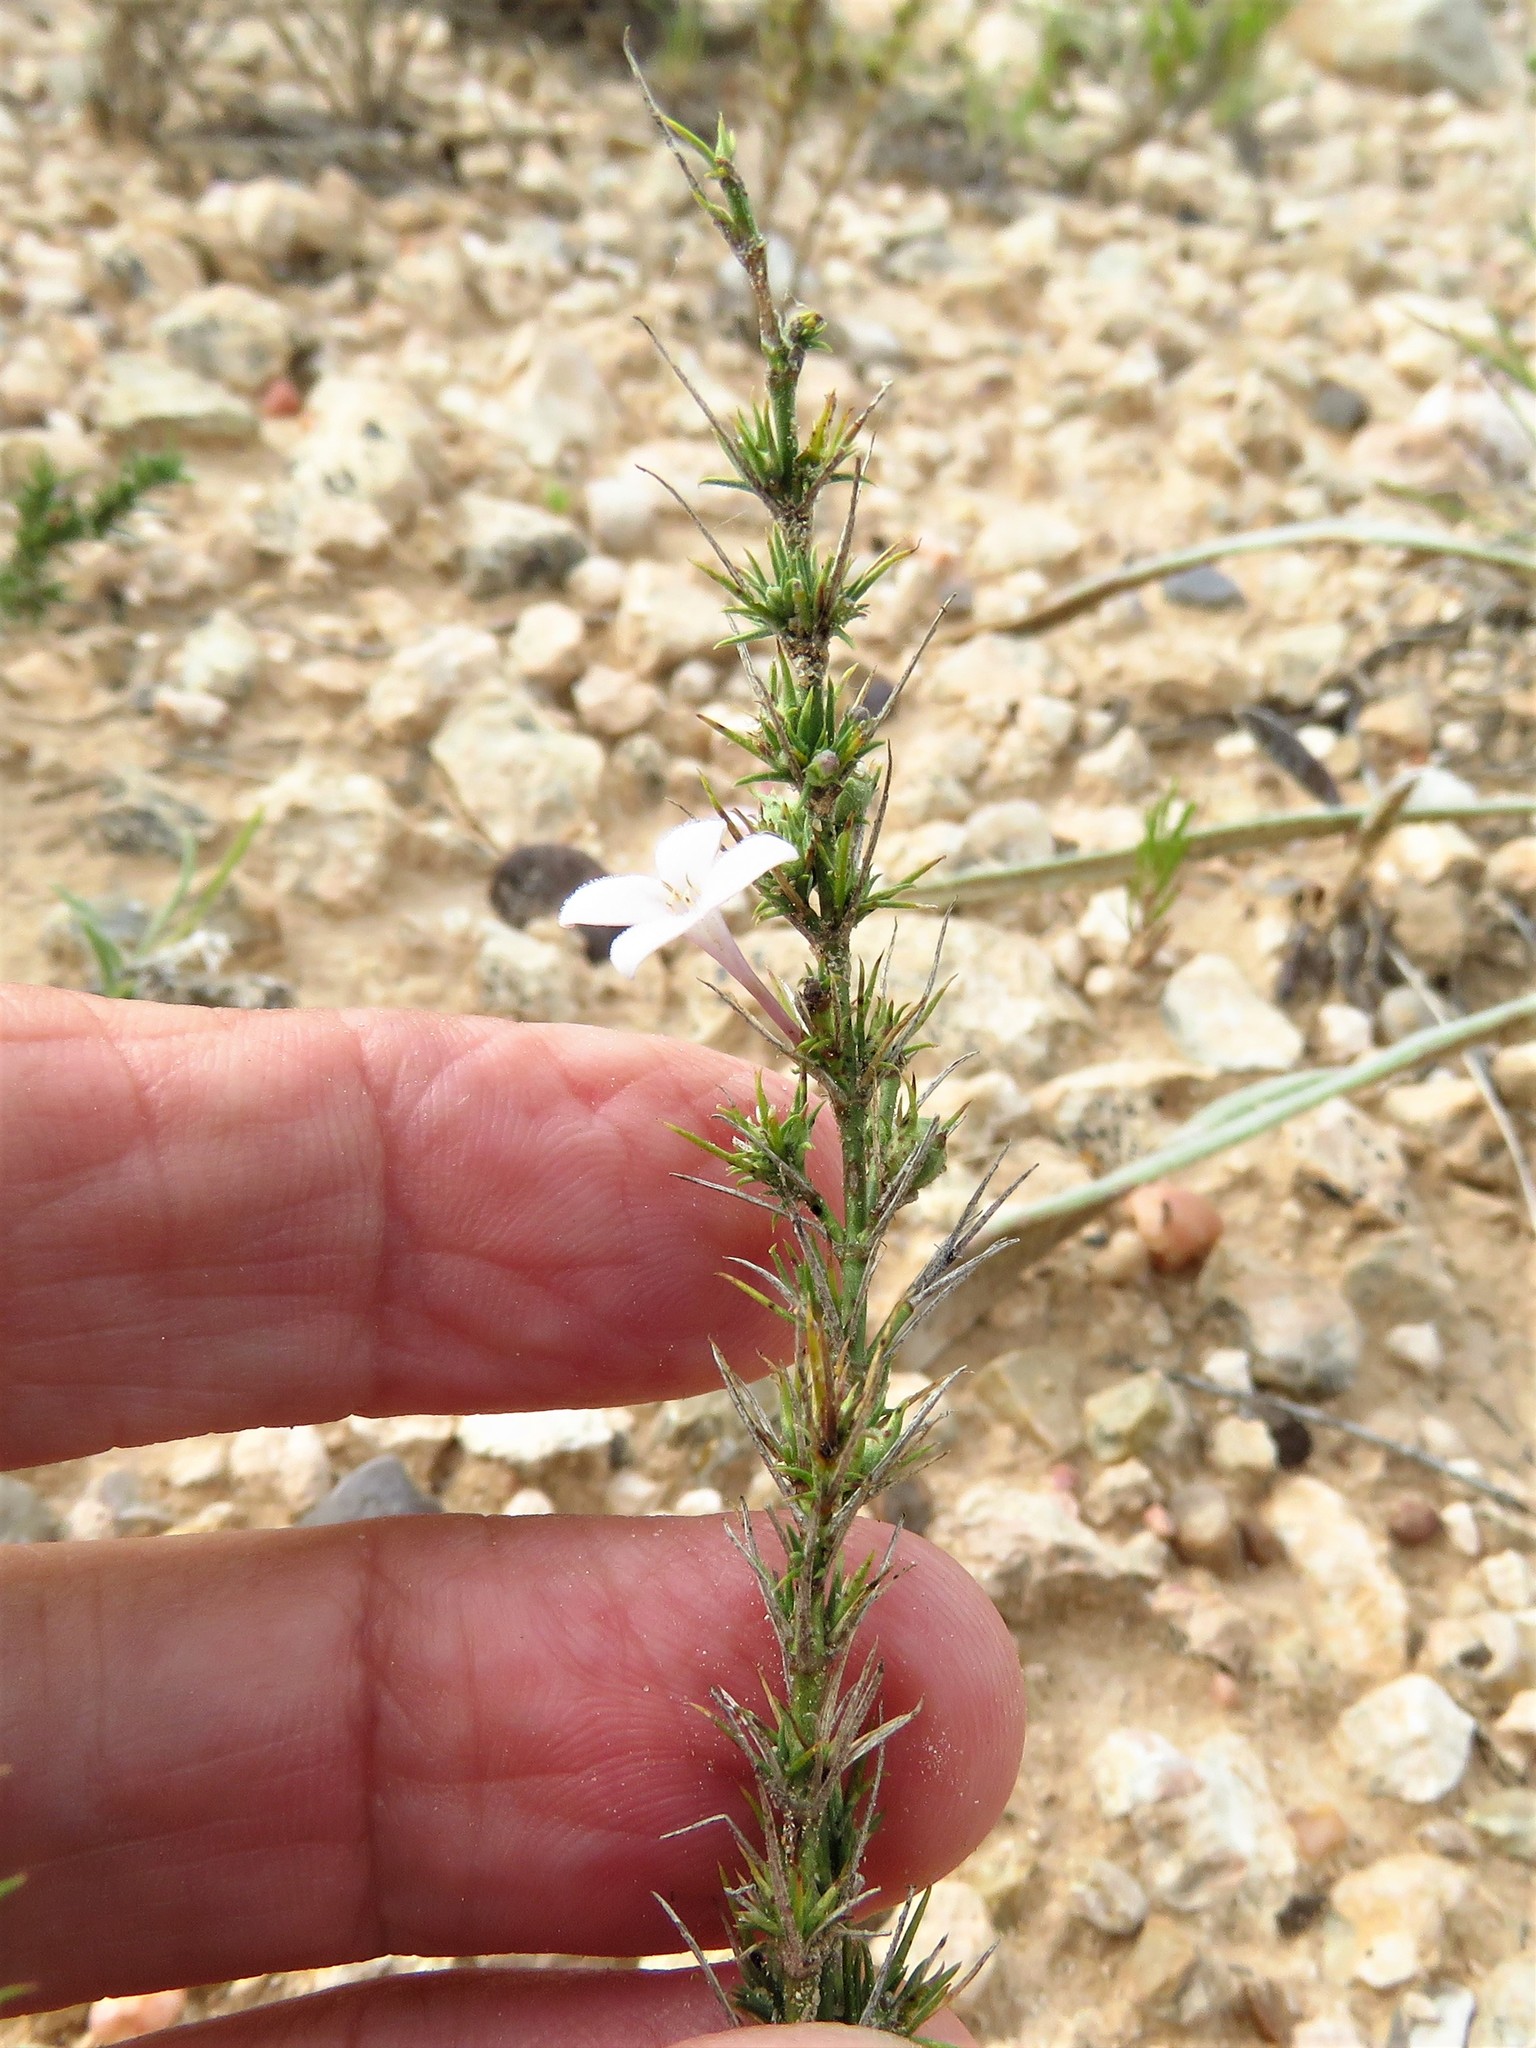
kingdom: Plantae
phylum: Tracheophyta
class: Magnoliopsida
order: Gentianales
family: Rubiaceae
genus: Houstonia
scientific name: Houstonia acerosa
